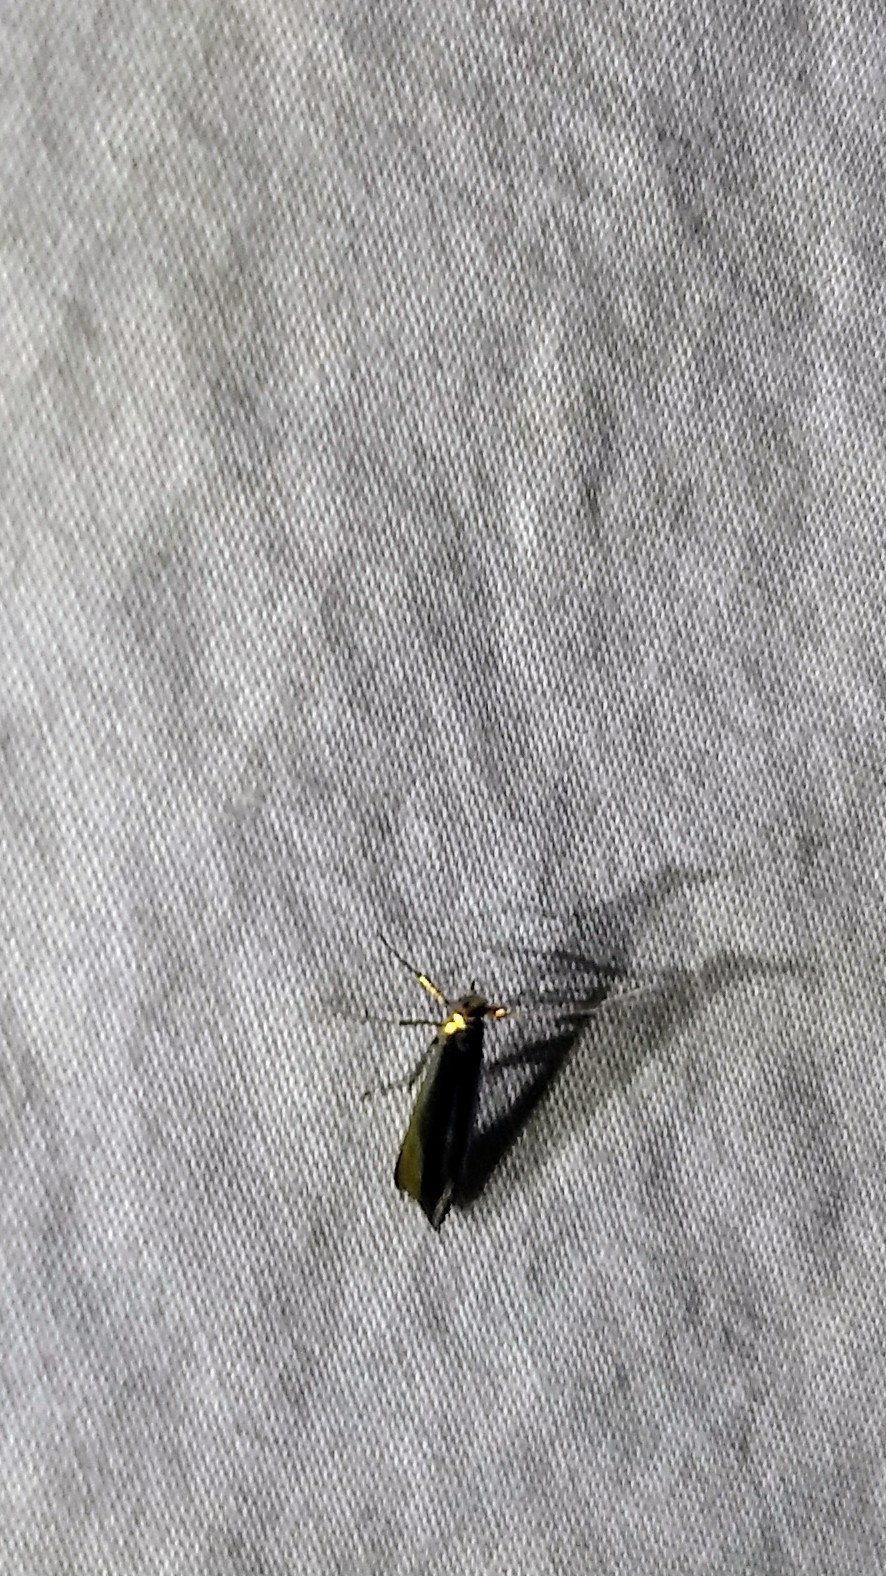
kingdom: Animalia
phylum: Arthropoda
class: Insecta
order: Lepidoptera
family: Coleophoridae
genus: Coleophora
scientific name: Coleophora trifolii
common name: Large clover case-bearer
